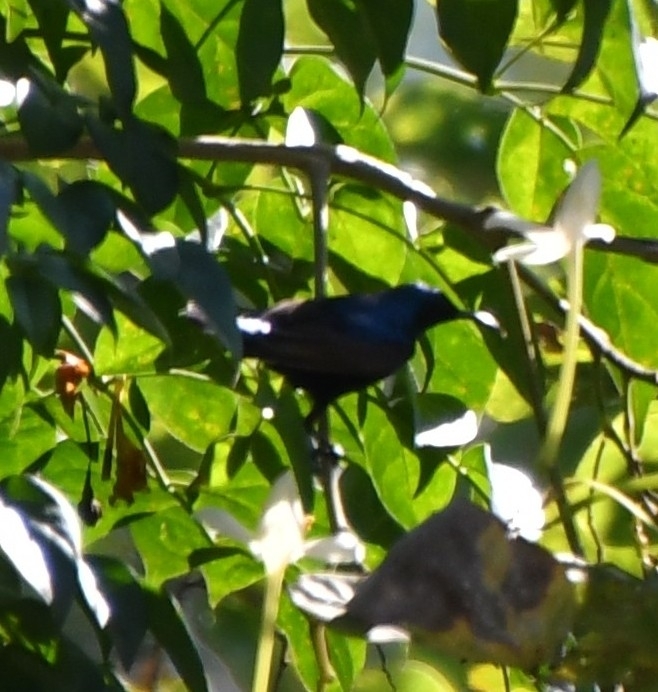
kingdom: Animalia
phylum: Chordata
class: Aves
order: Passeriformes
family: Nectariniidae
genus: Cinnyris
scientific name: Cinnyris asiaticus
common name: Purple sunbird
